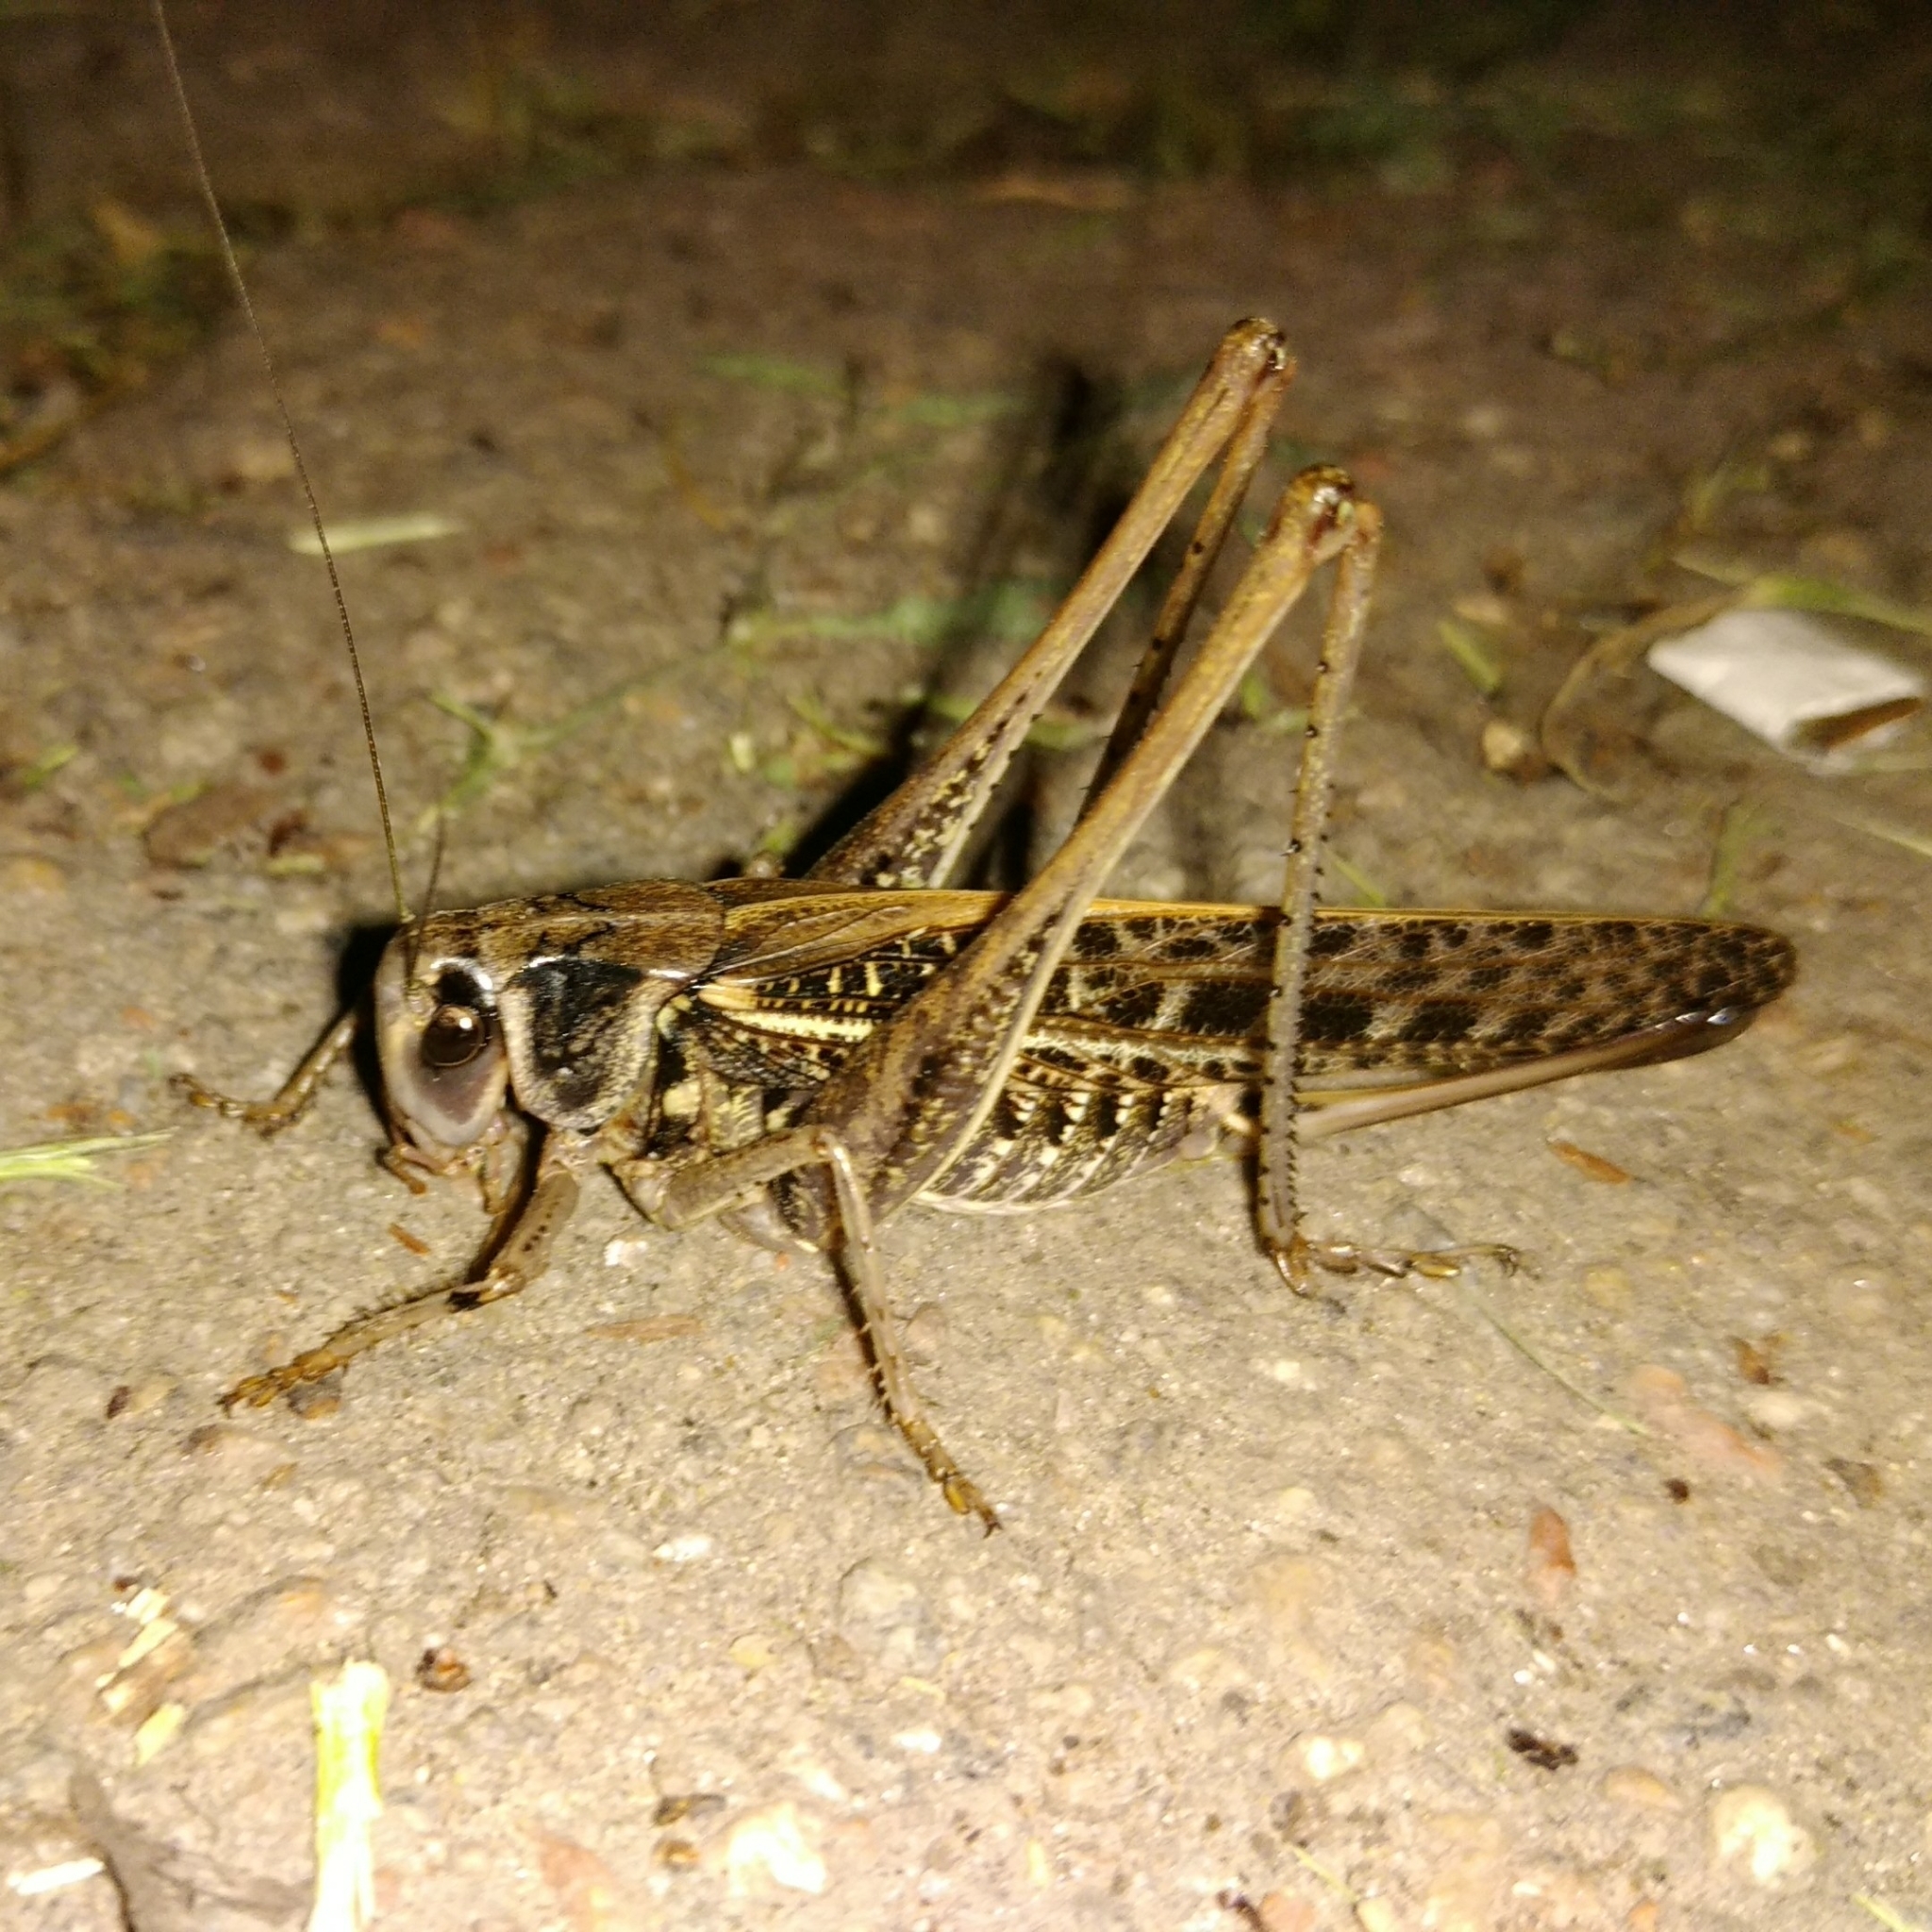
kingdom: Animalia
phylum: Arthropoda
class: Insecta
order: Orthoptera
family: Tettigoniidae
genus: Decticus
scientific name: Decticus verrucivorus
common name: Wart-biter
